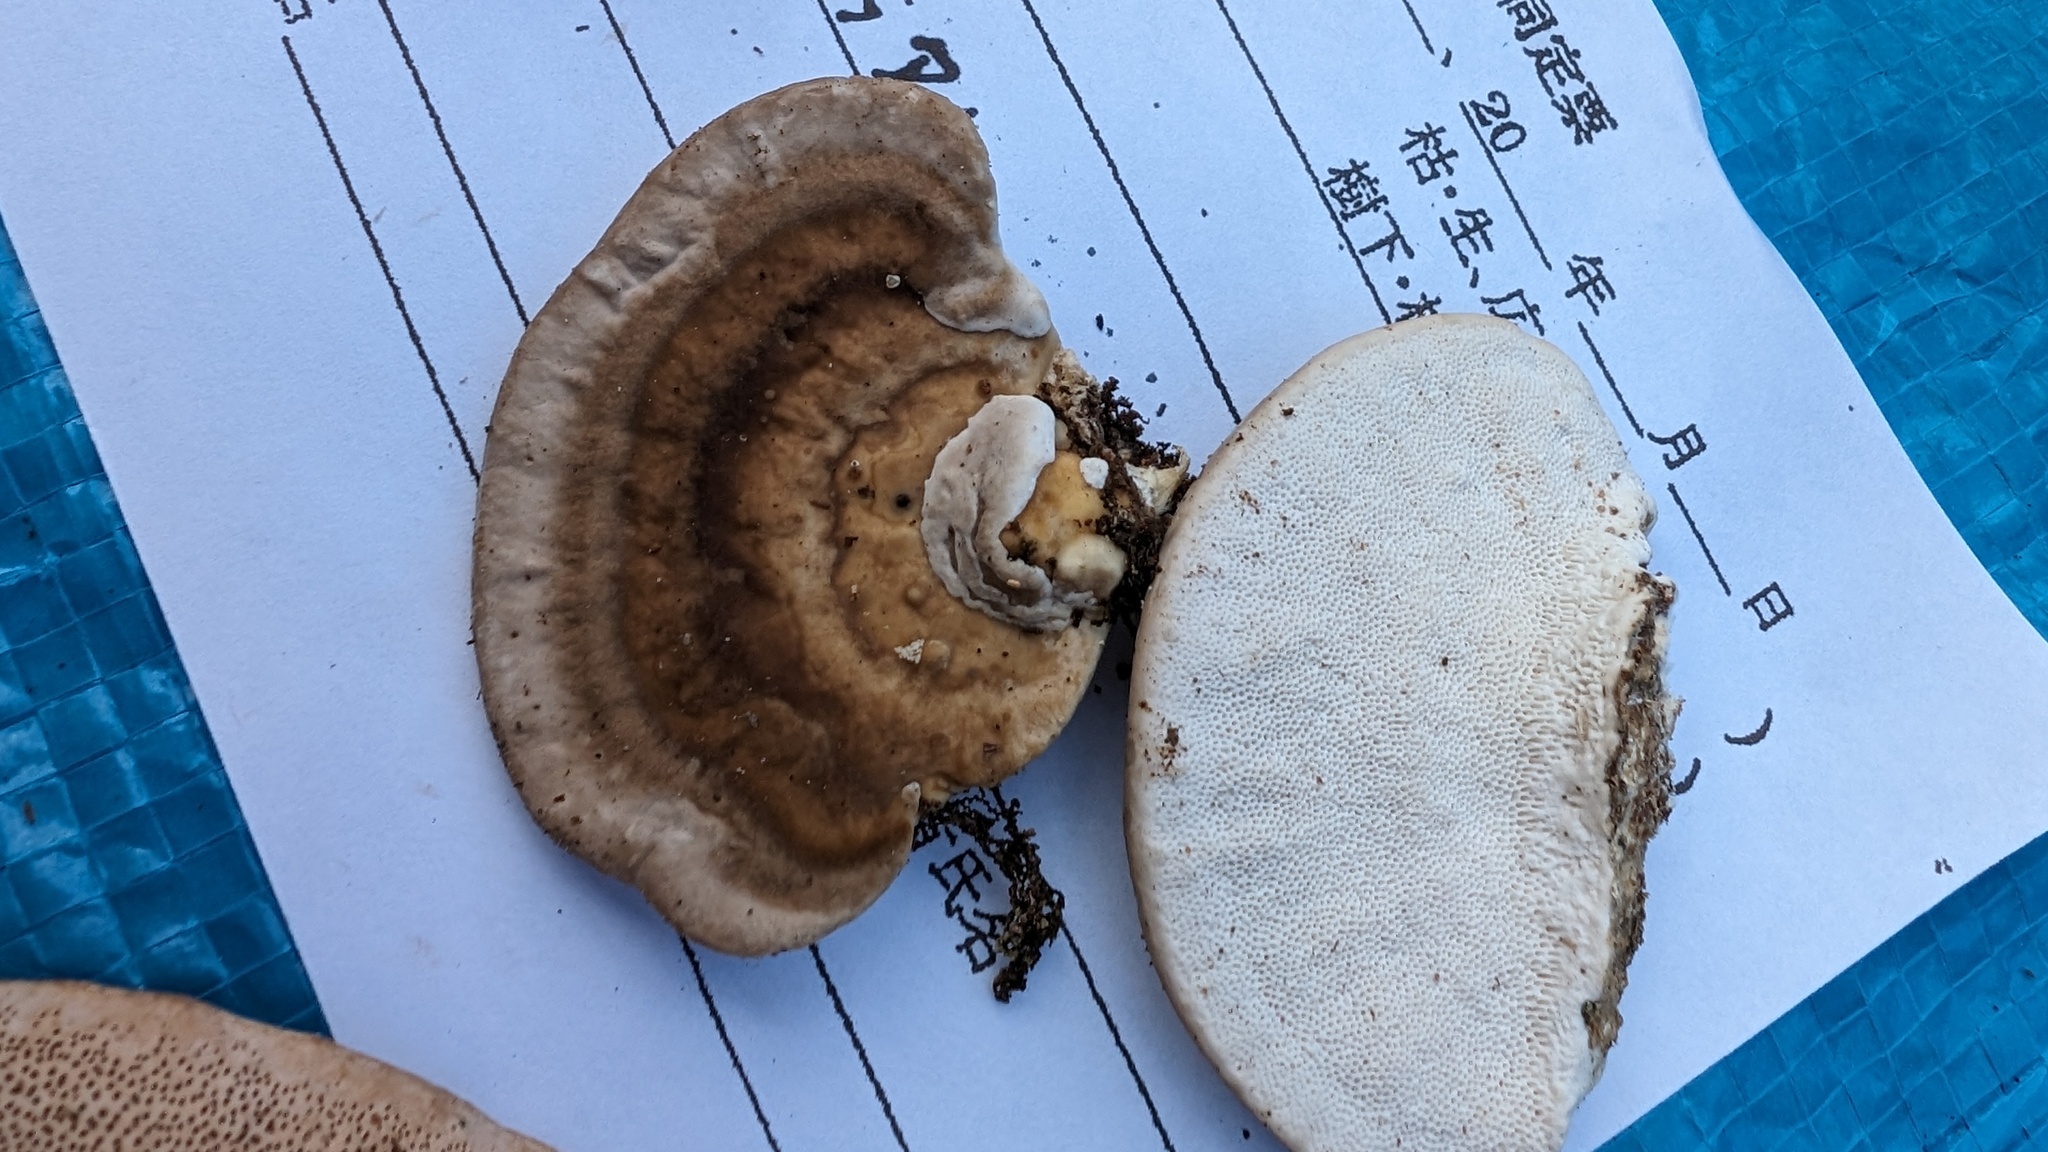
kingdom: Fungi
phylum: Basidiomycota
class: Agaricomycetes
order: Polyporales
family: Polyporaceae
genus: Trametes
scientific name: Trametes orientalis
